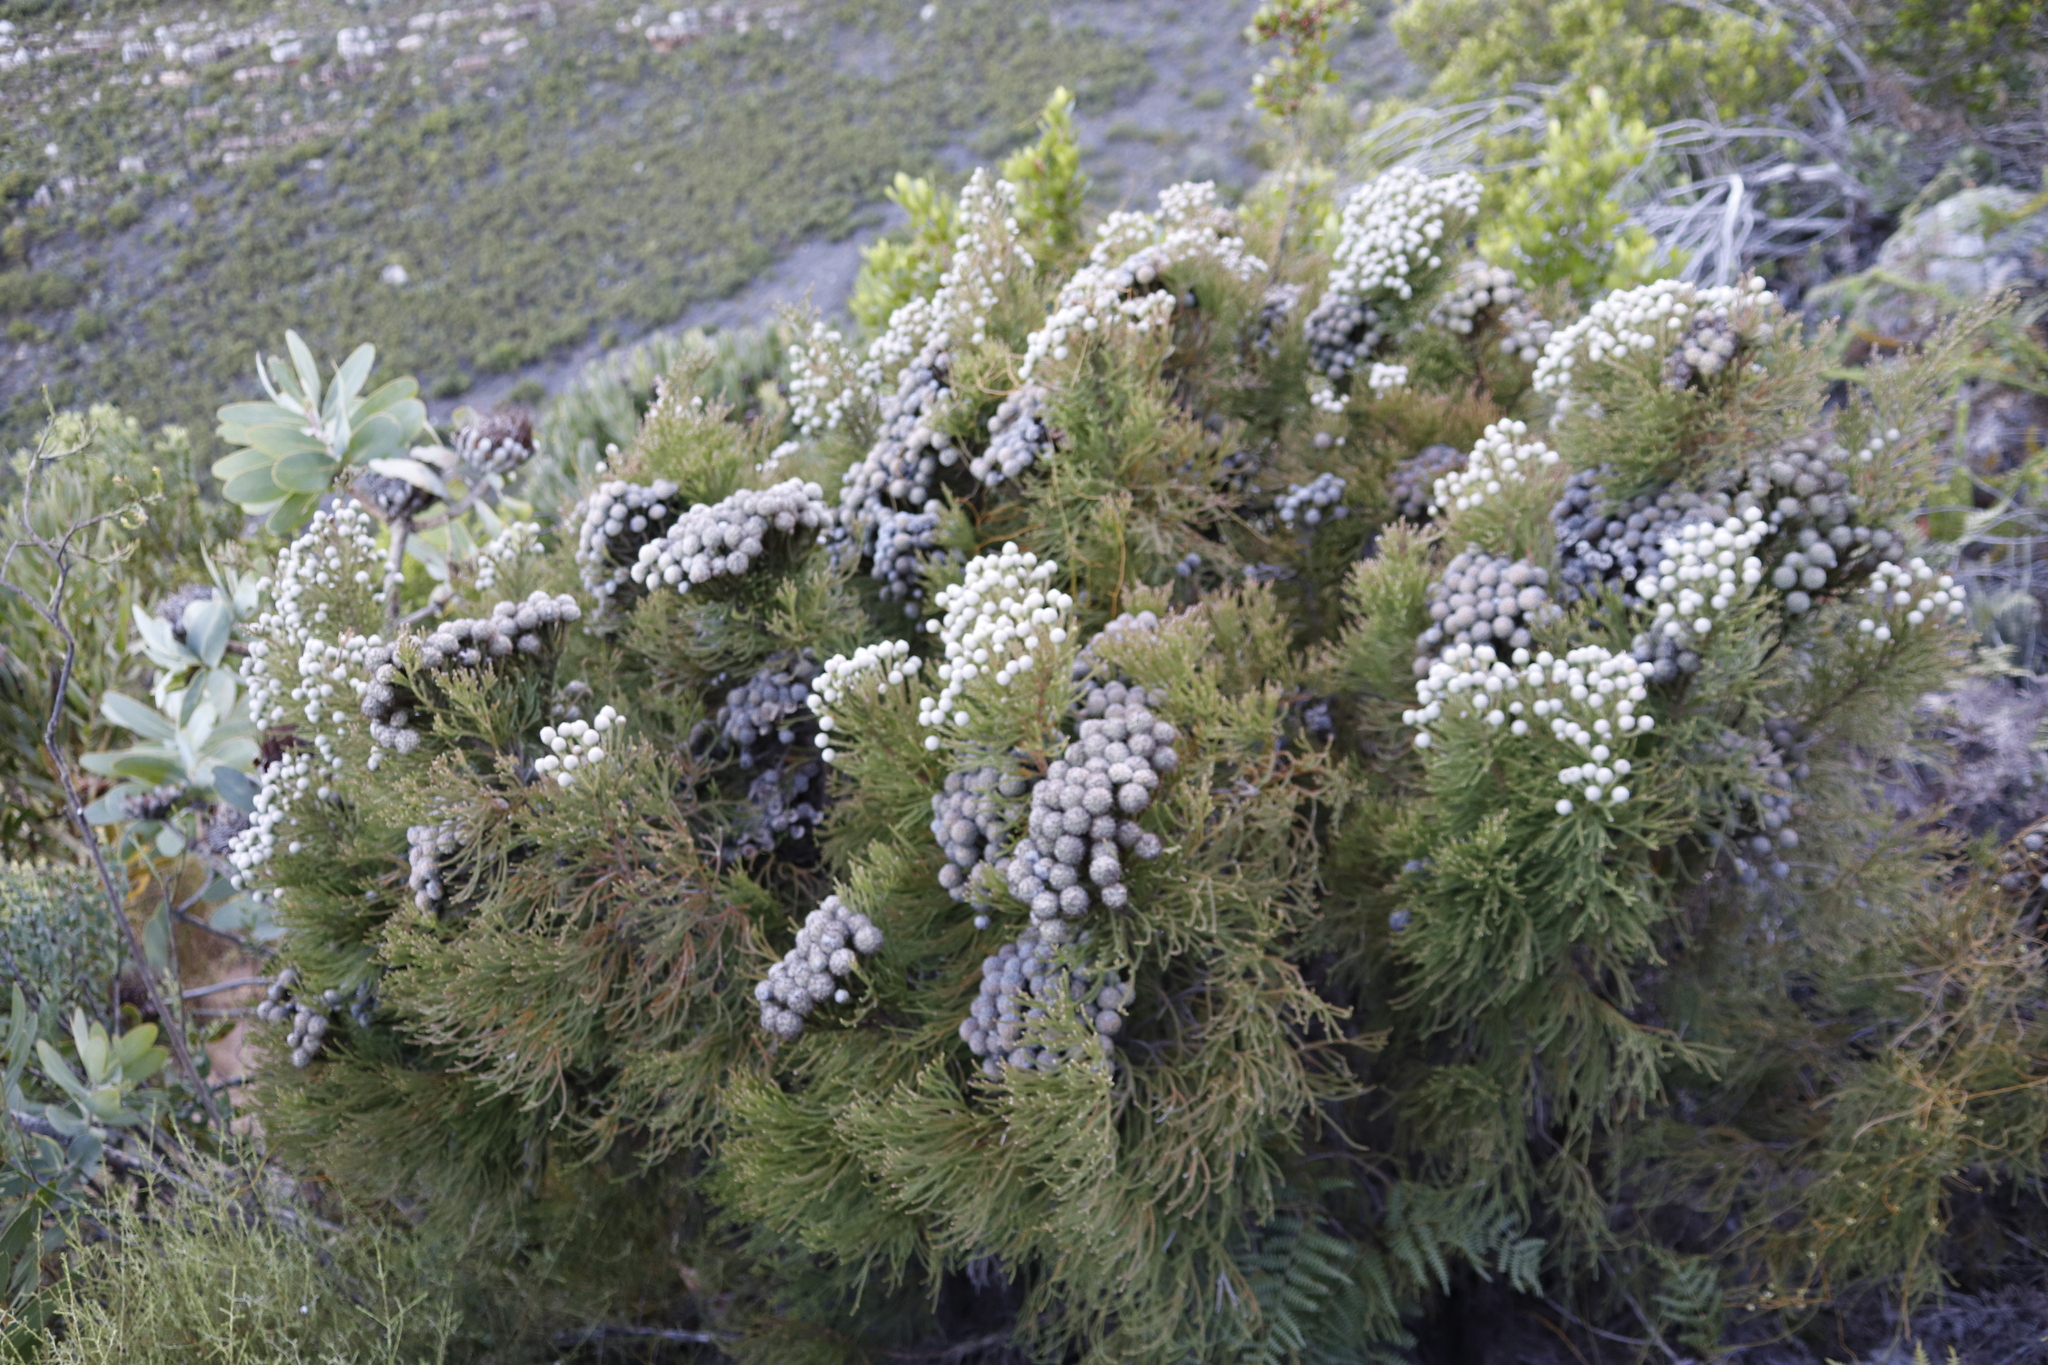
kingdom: Plantae
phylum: Tracheophyta
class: Magnoliopsida
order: Bruniales
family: Bruniaceae
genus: Brunia
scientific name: Brunia noduliflora
